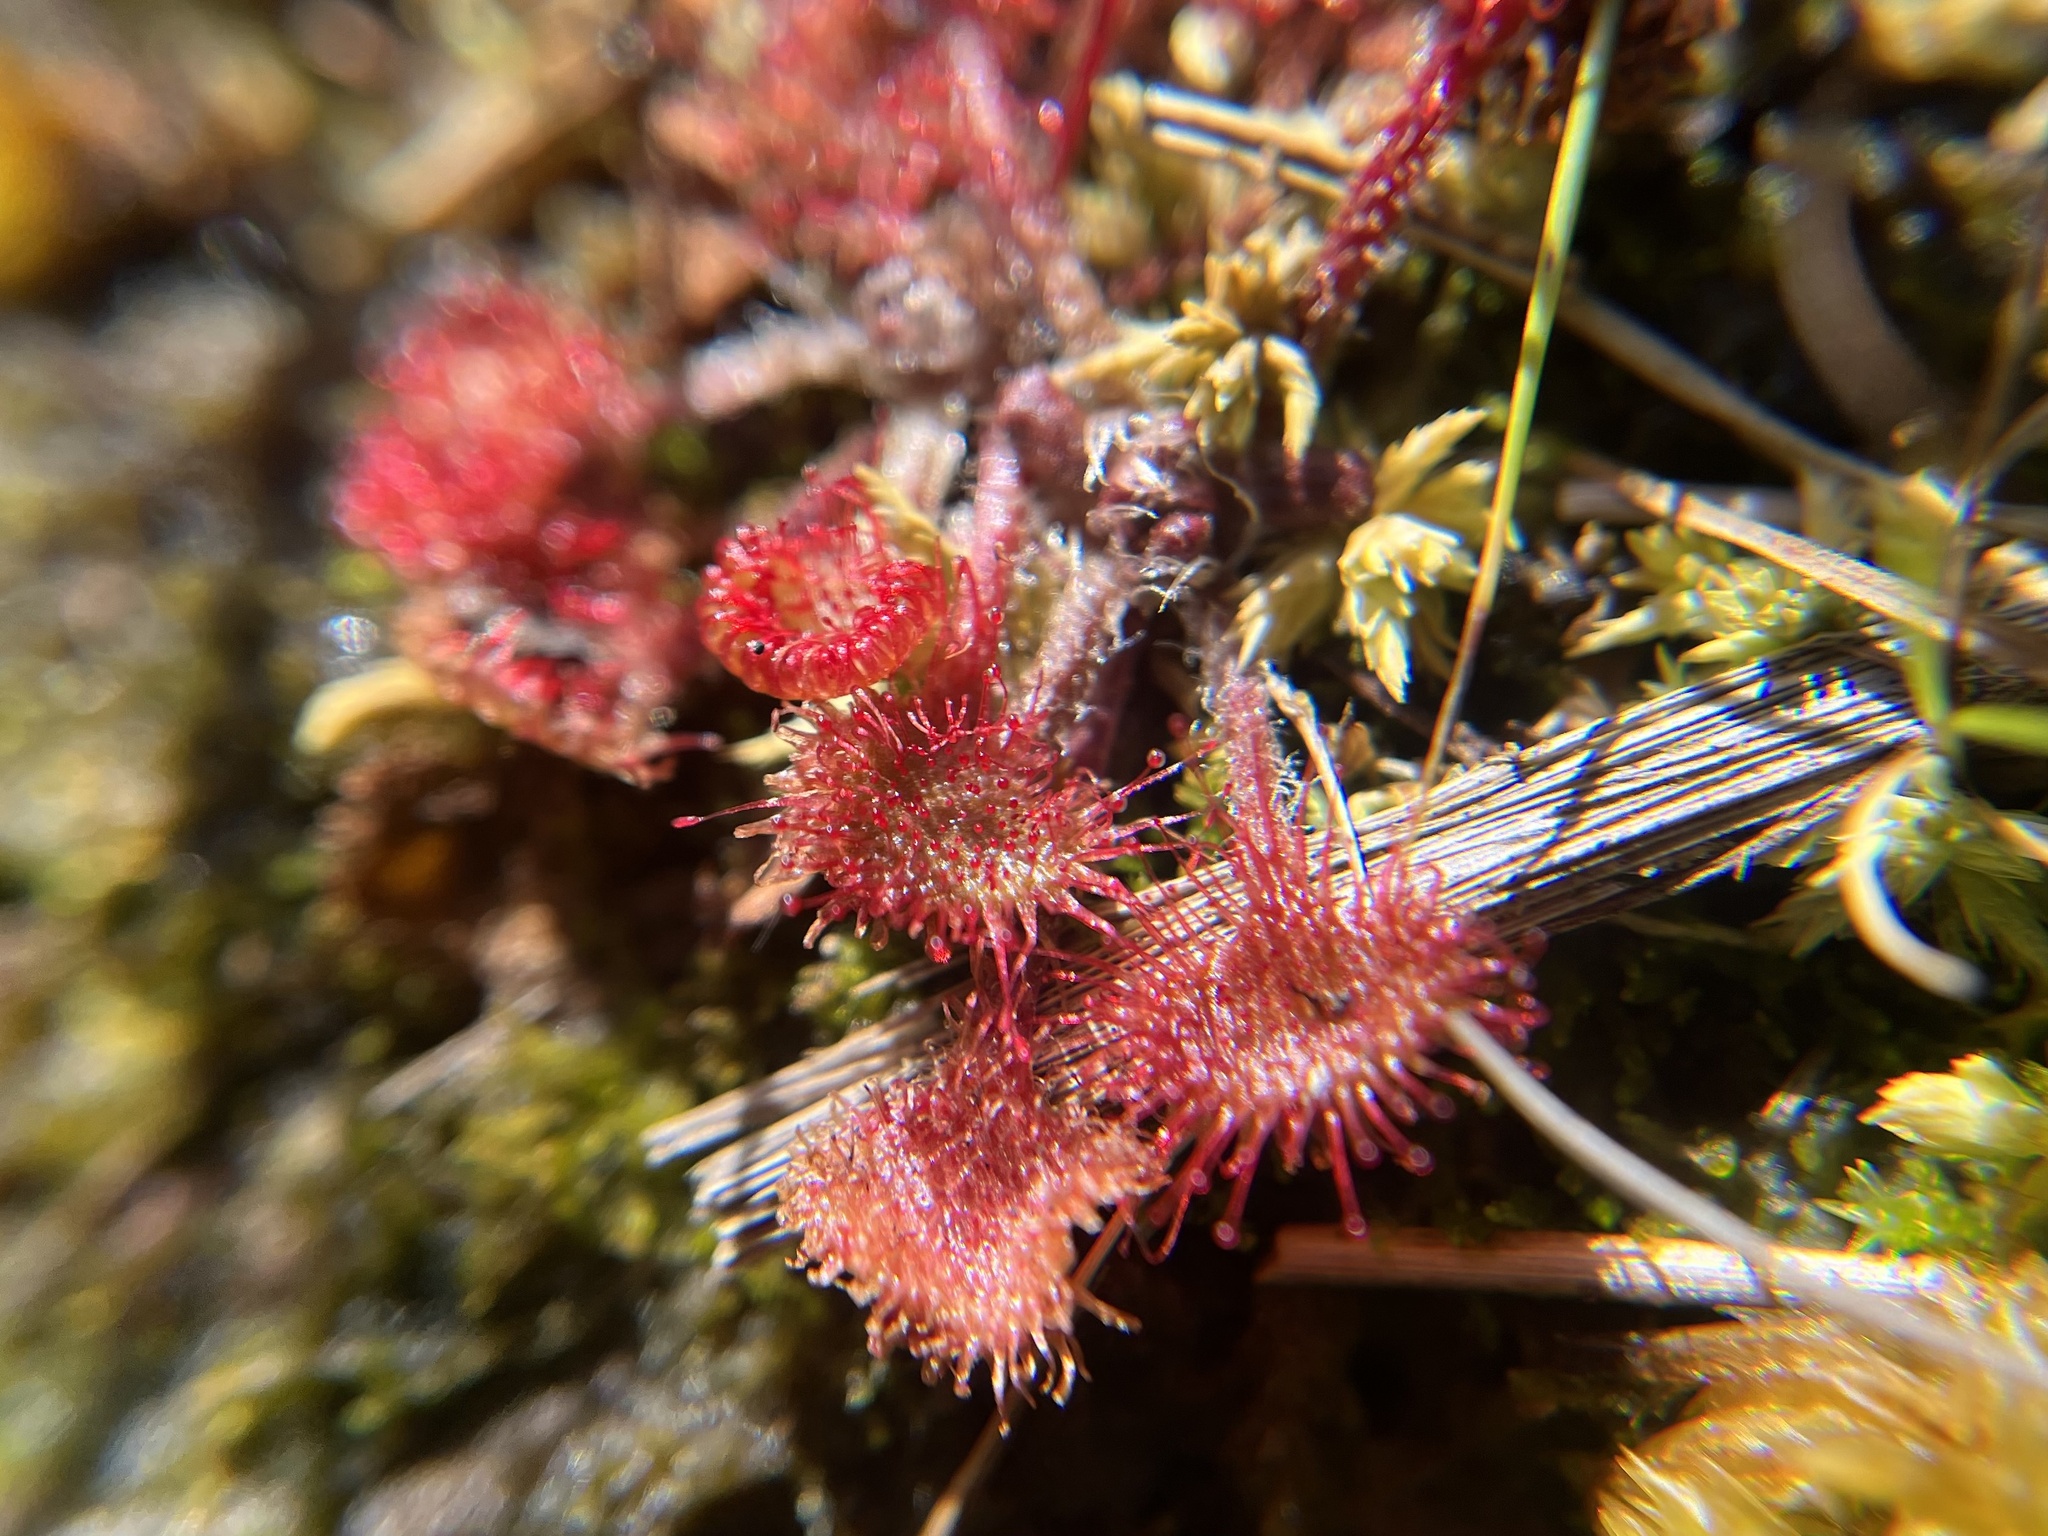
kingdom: Plantae
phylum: Tracheophyta
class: Magnoliopsida
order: Caryophyllales
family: Droseraceae
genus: Drosera
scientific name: Drosera rotundifolia
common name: Round-leaved sundew
